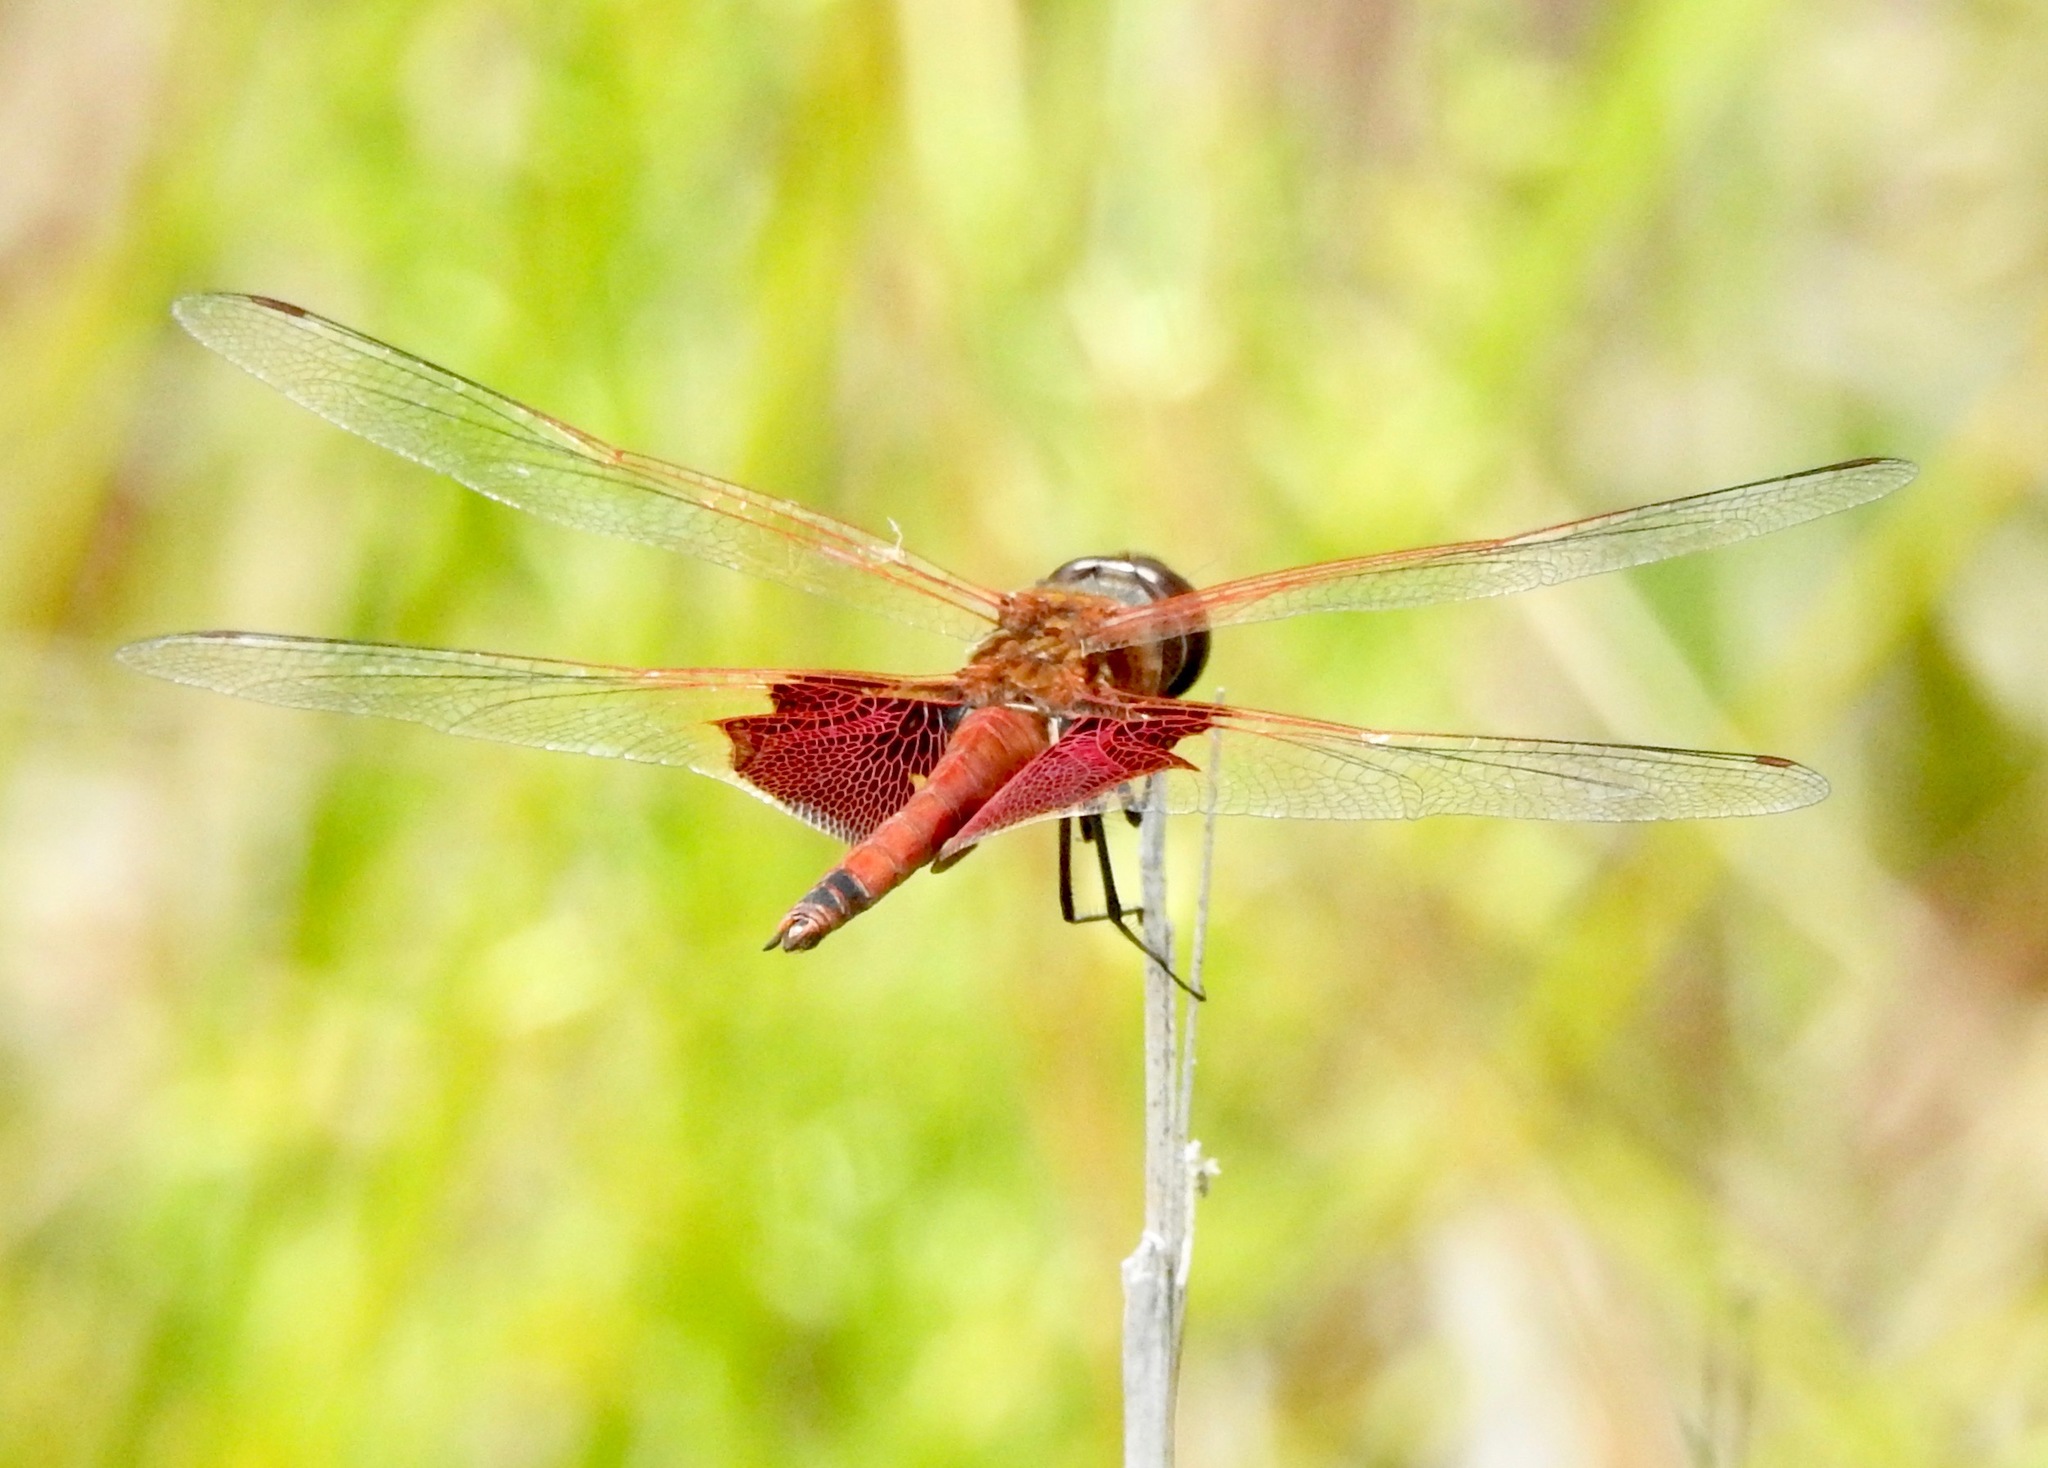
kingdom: Animalia
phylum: Arthropoda
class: Insecta
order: Odonata
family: Libellulidae
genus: Tramea
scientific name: Tramea carolina
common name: Carolina saddlebags
